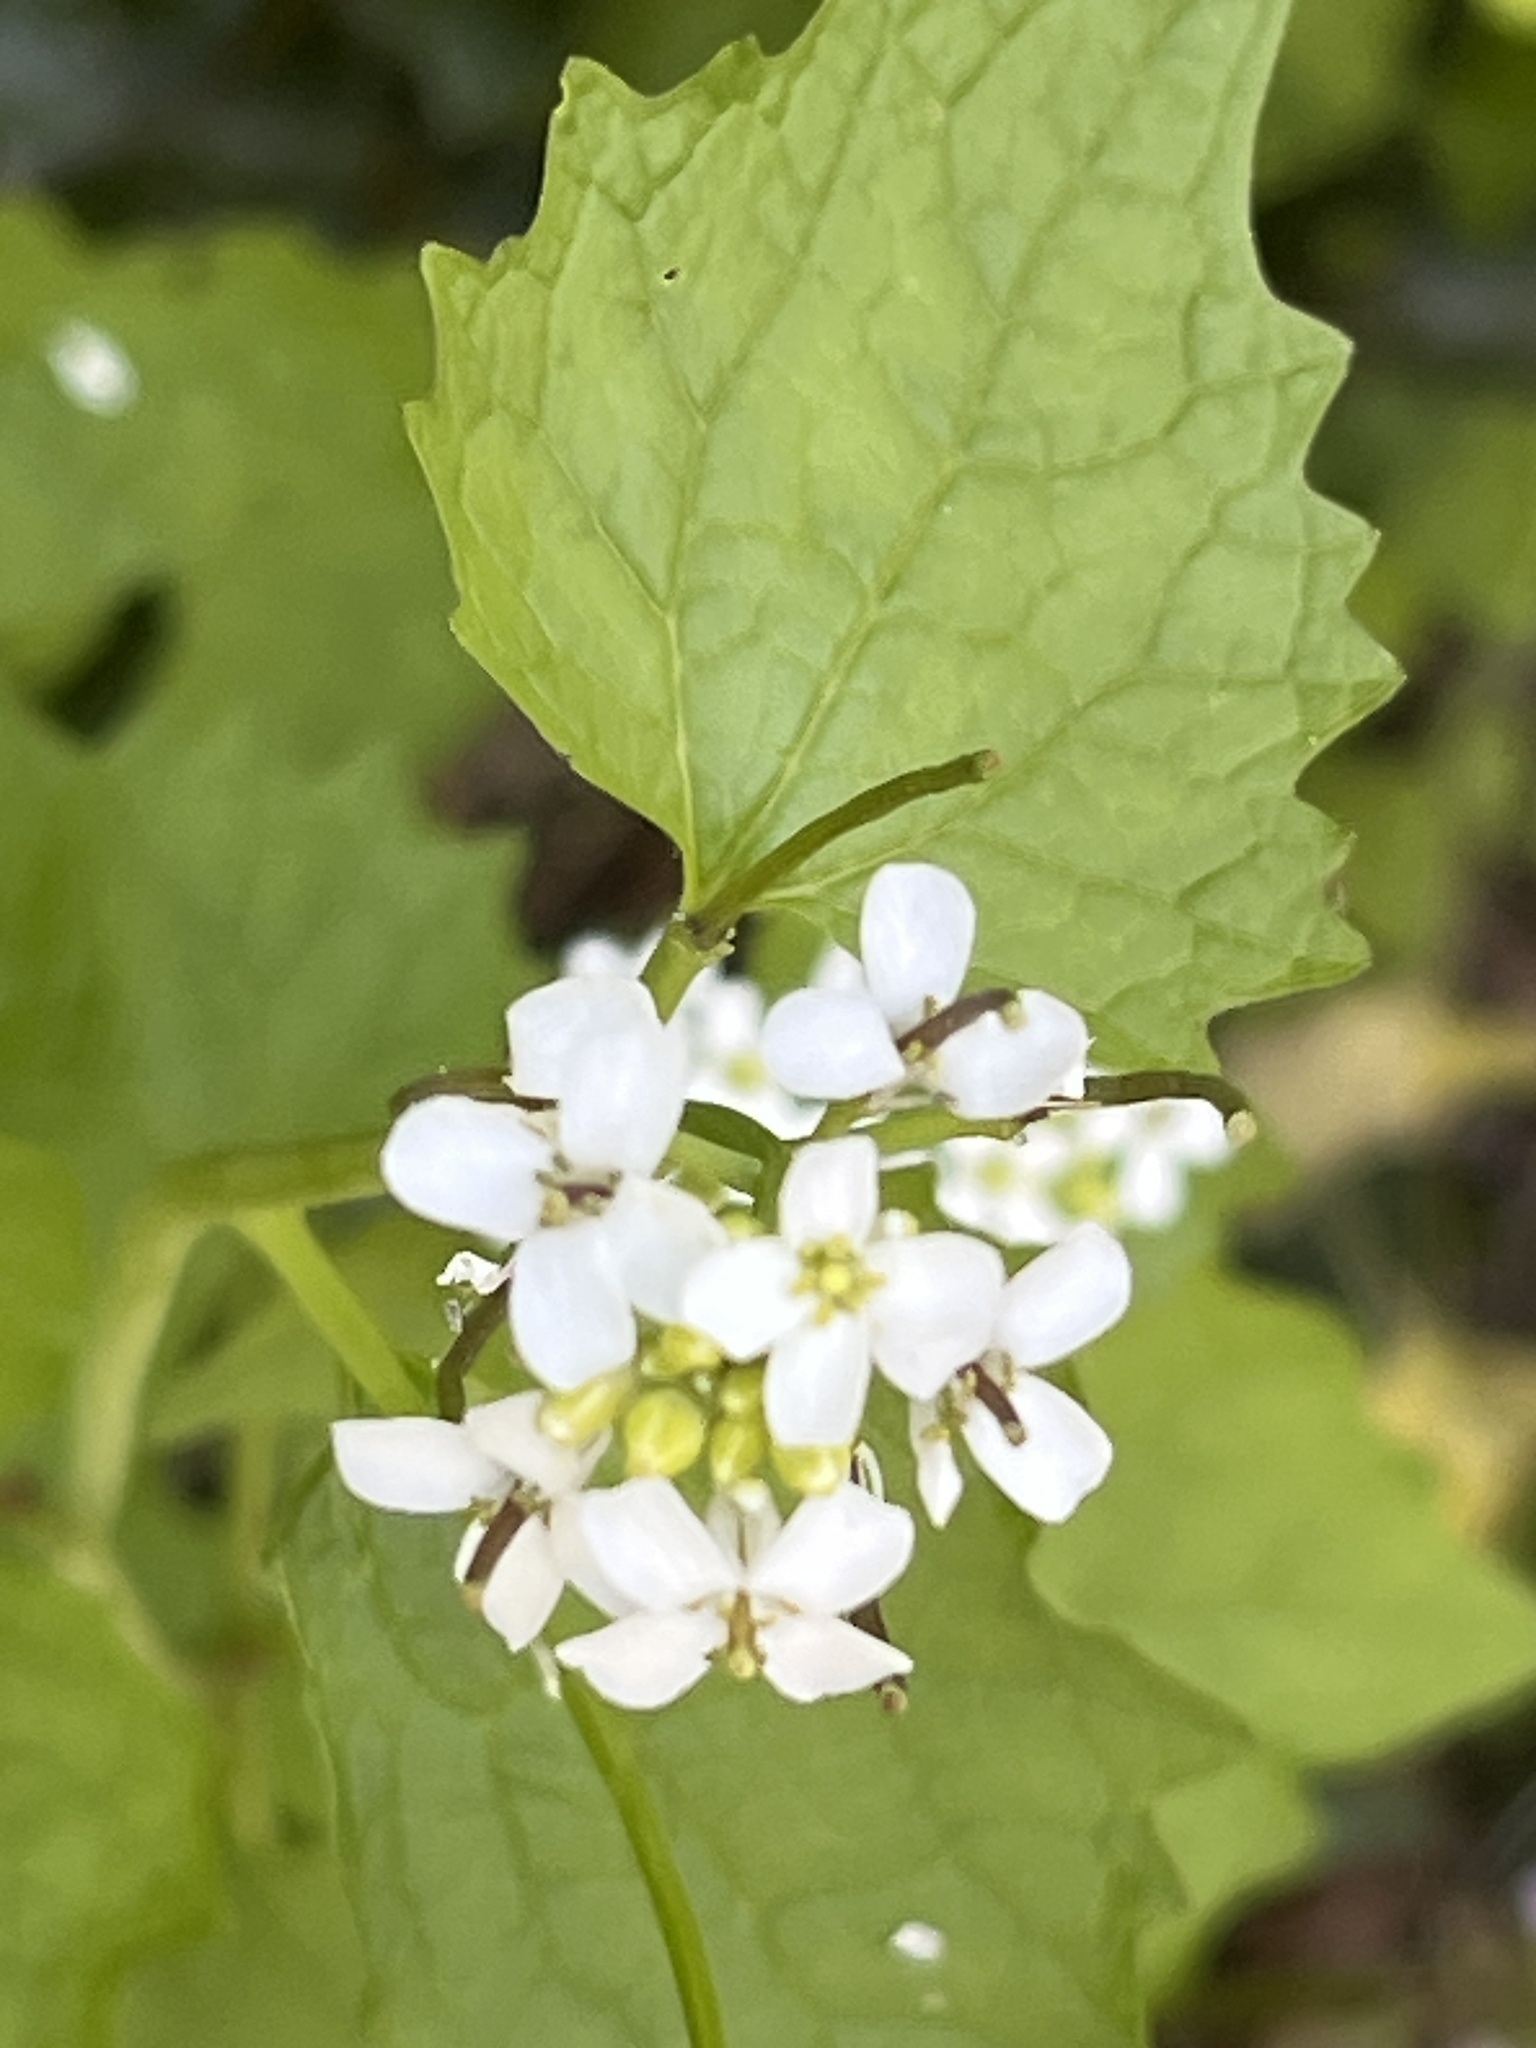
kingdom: Plantae
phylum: Tracheophyta
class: Magnoliopsida
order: Brassicales
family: Brassicaceae
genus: Alliaria
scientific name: Alliaria petiolata
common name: Garlic mustard
